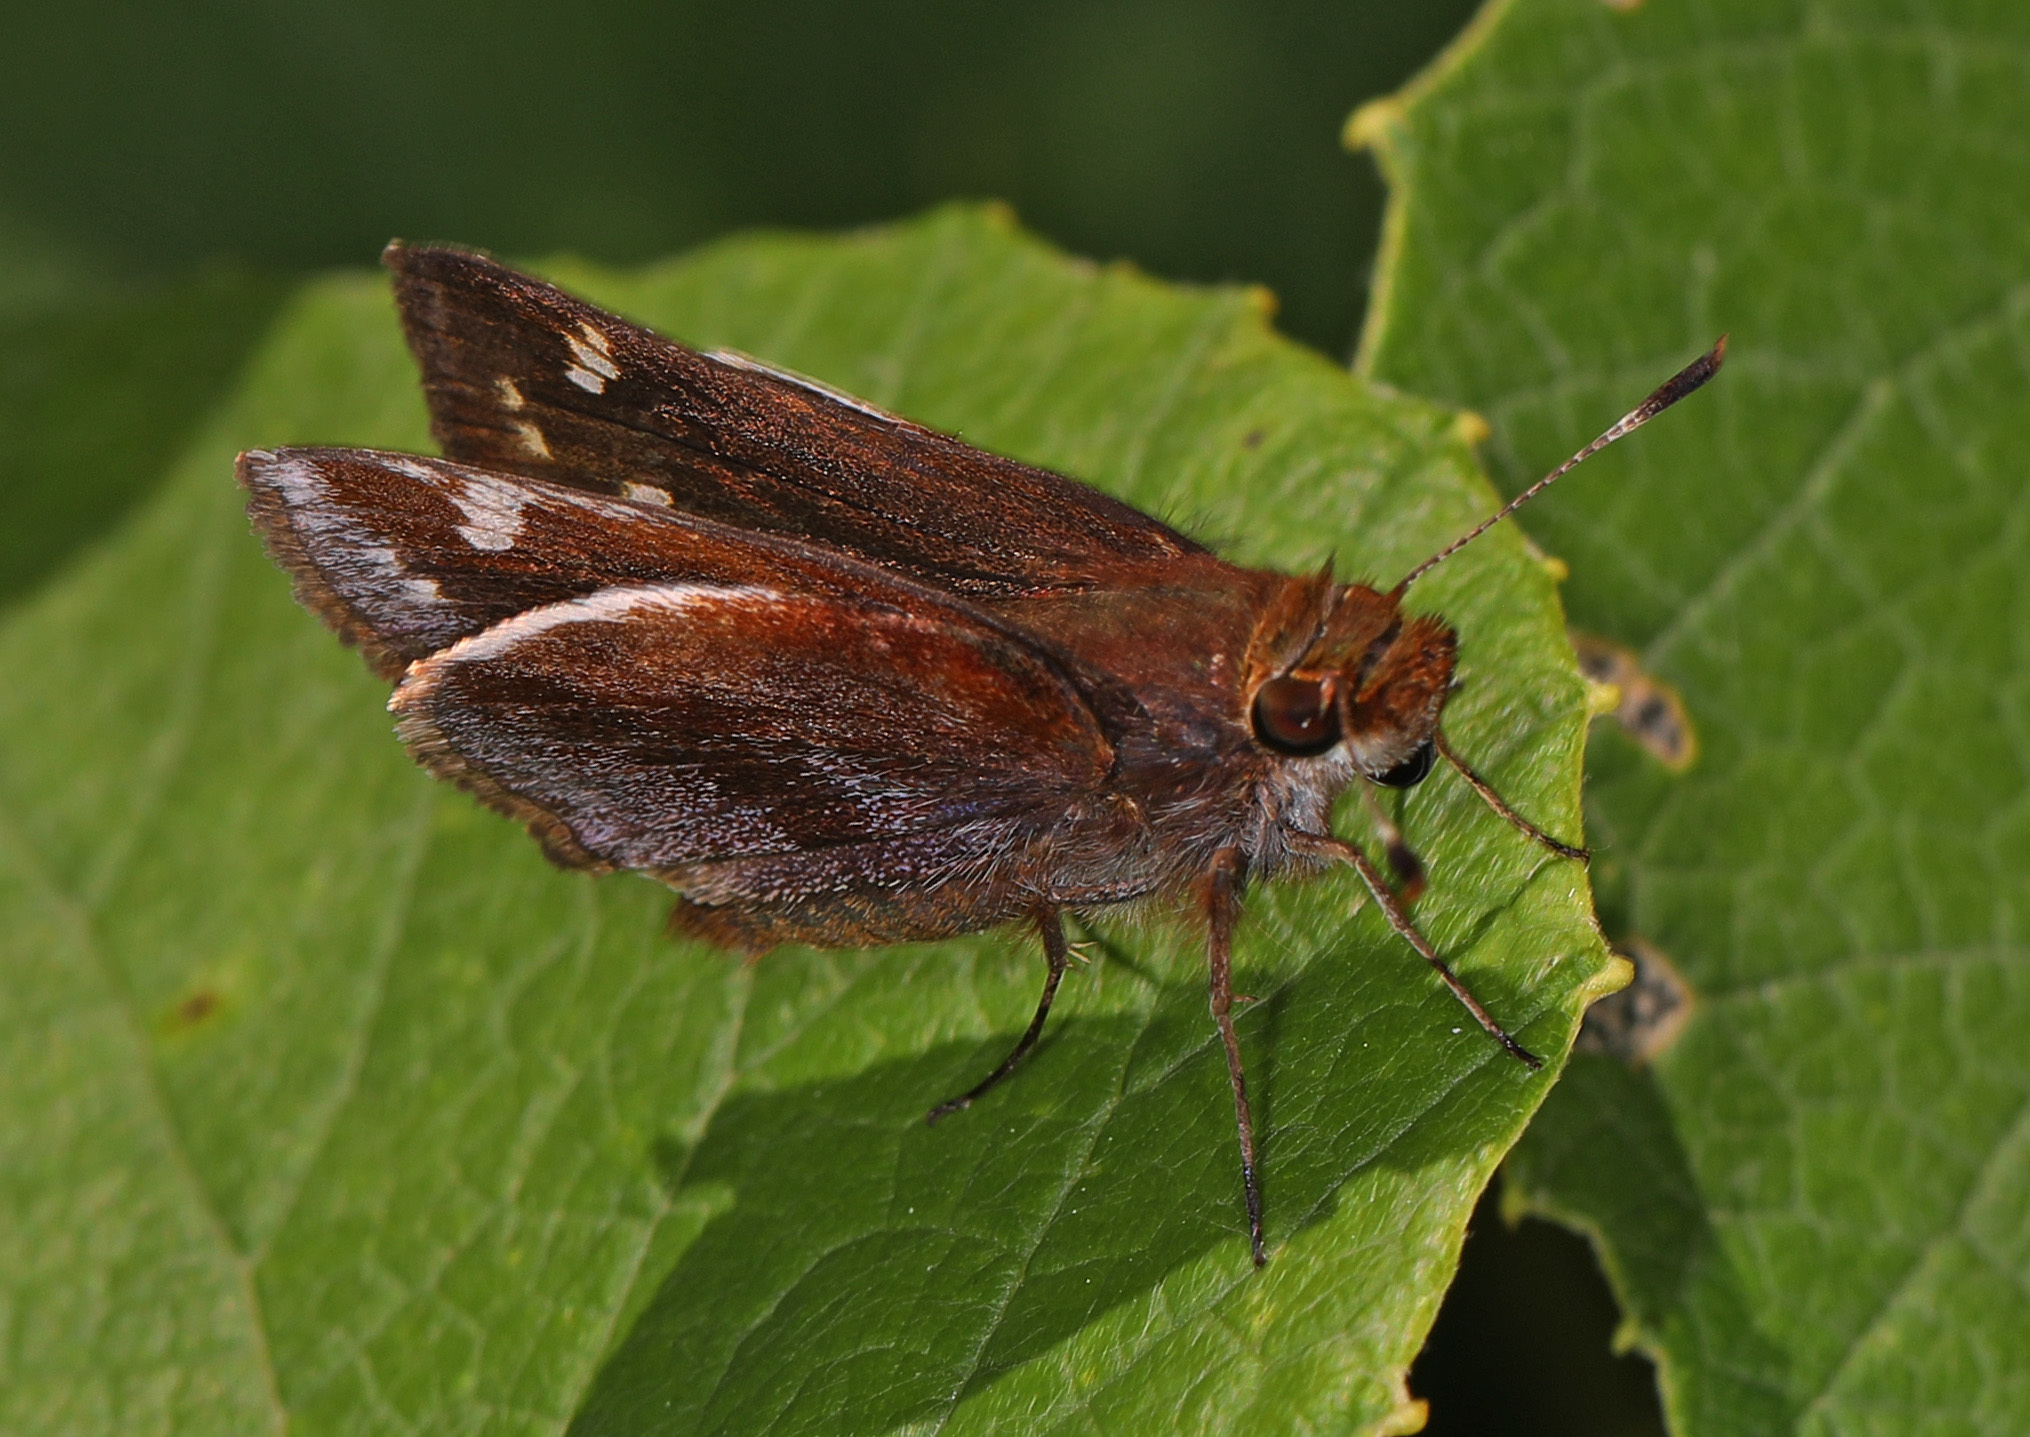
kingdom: Animalia
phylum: Arthropoda
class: Insecta
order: Lepidoptera
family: Hesperiidae
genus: Lon
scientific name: Lon zabulon
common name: Zabulon skipper
